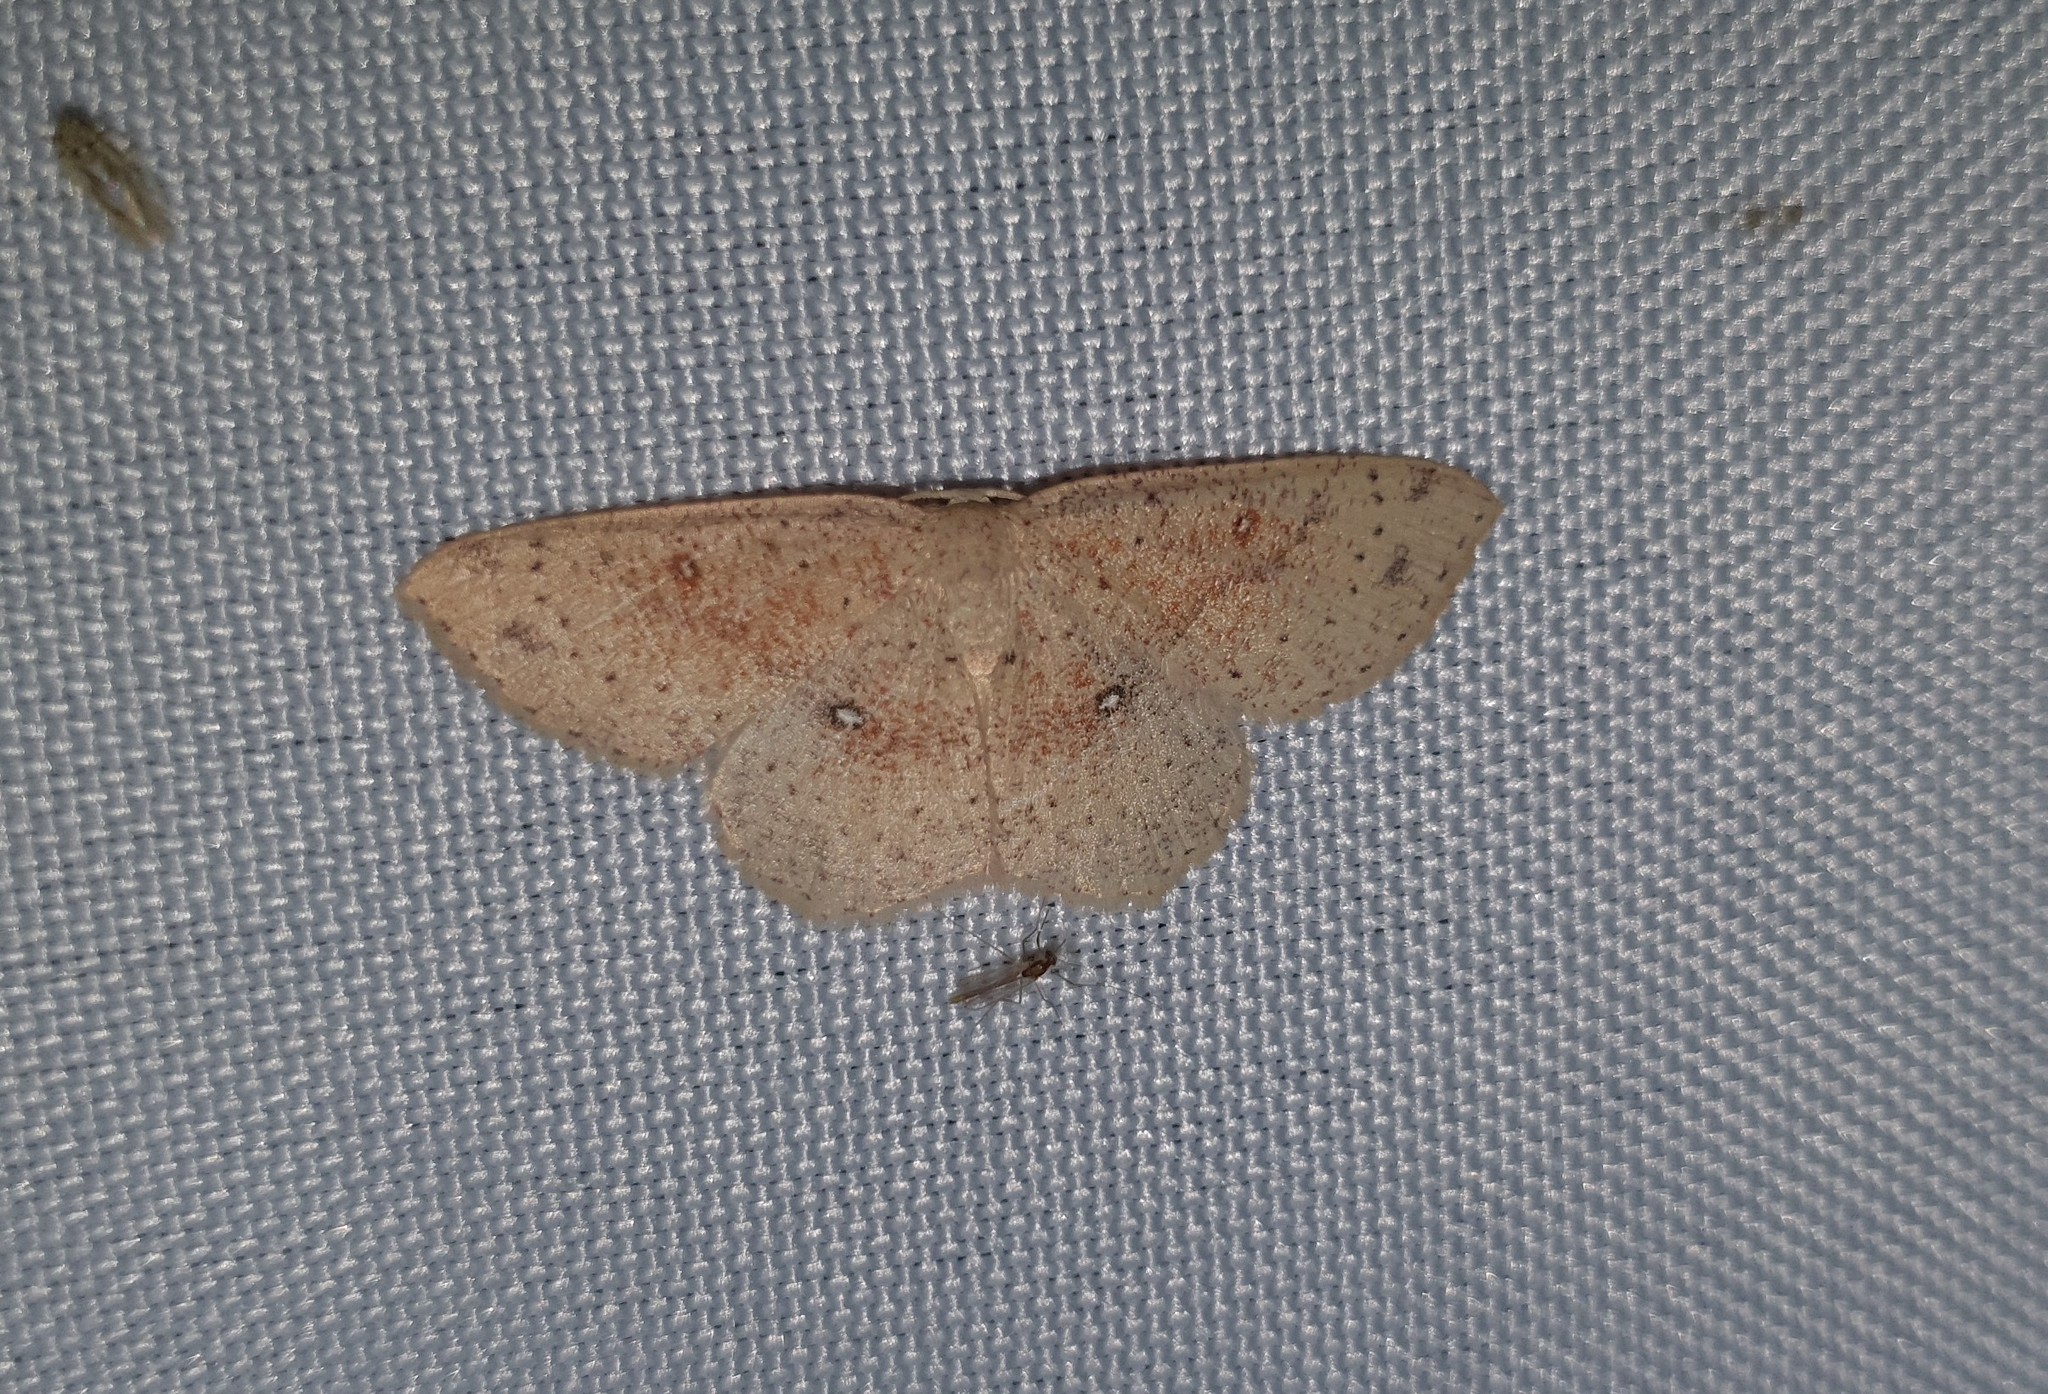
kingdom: Animalia
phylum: Arthropoda
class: Insecta
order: Lepidoptera
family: Geometridae
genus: Cyclophora
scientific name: Cyclophora porata
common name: False mocha
